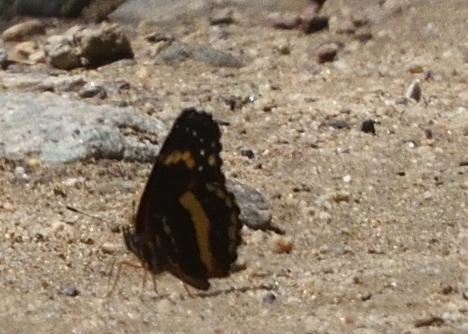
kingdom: Animalia
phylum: Arthropoda
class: Insecta
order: Lepidoptera
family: Nymphalidae
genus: Chlosyne
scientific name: Chlosyne lacinia
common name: Bordered patch
